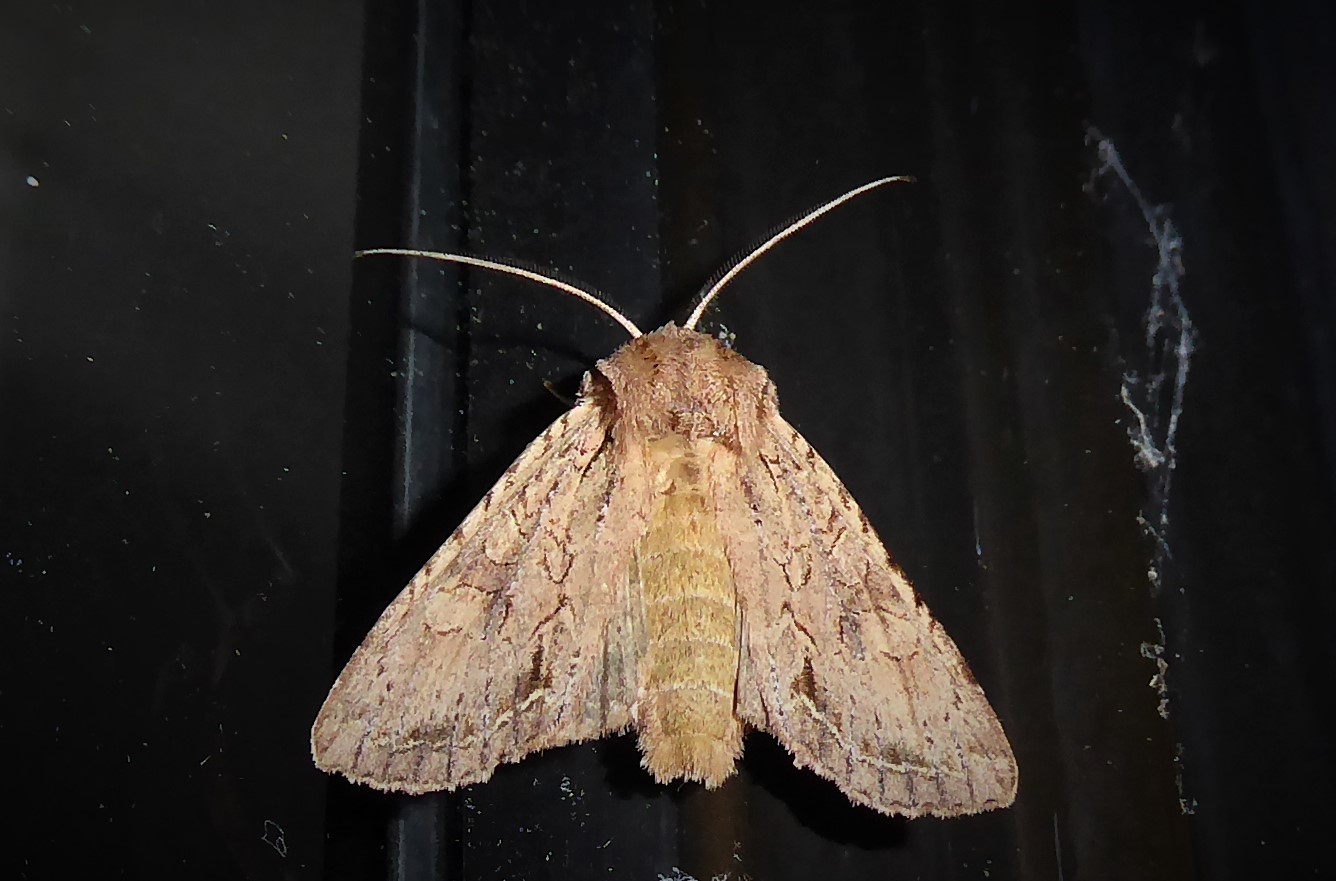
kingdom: Animalia
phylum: Arthropoda
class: Insecta
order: Lepidoptera
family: Noctuidae
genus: Ichneutica
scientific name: Ichneutica
